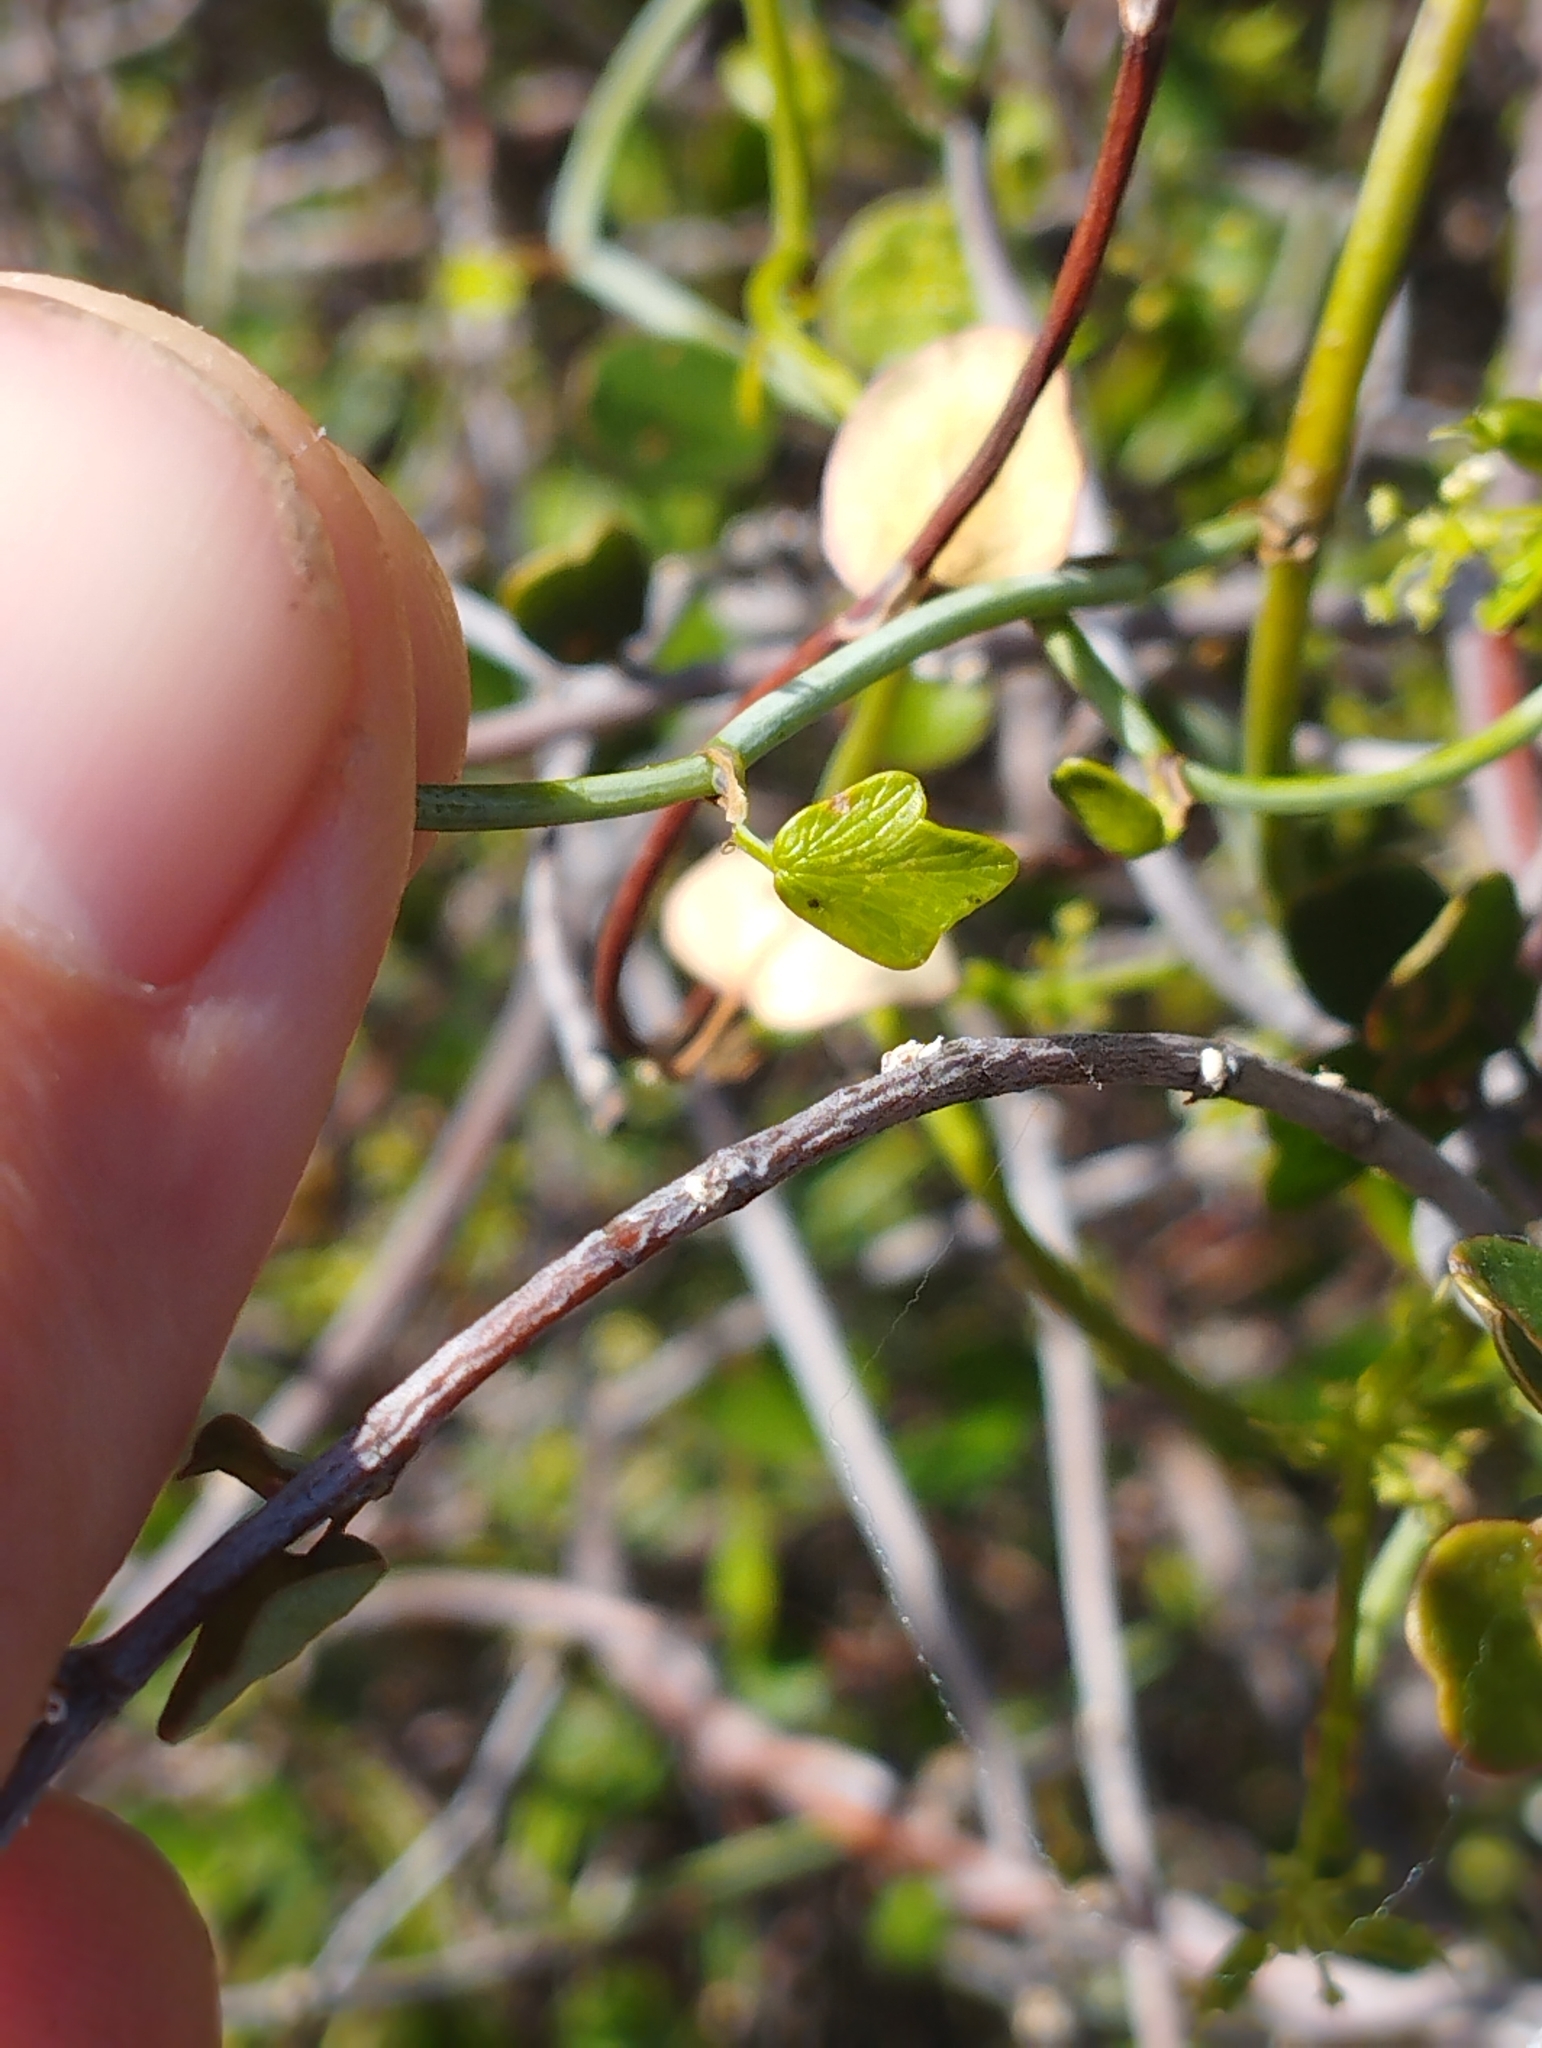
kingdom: Plantae
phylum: Tracheophyta
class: Magnoliopsida
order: Apiales
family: Apiaceae
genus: Scandia
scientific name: Scandia geniculata
